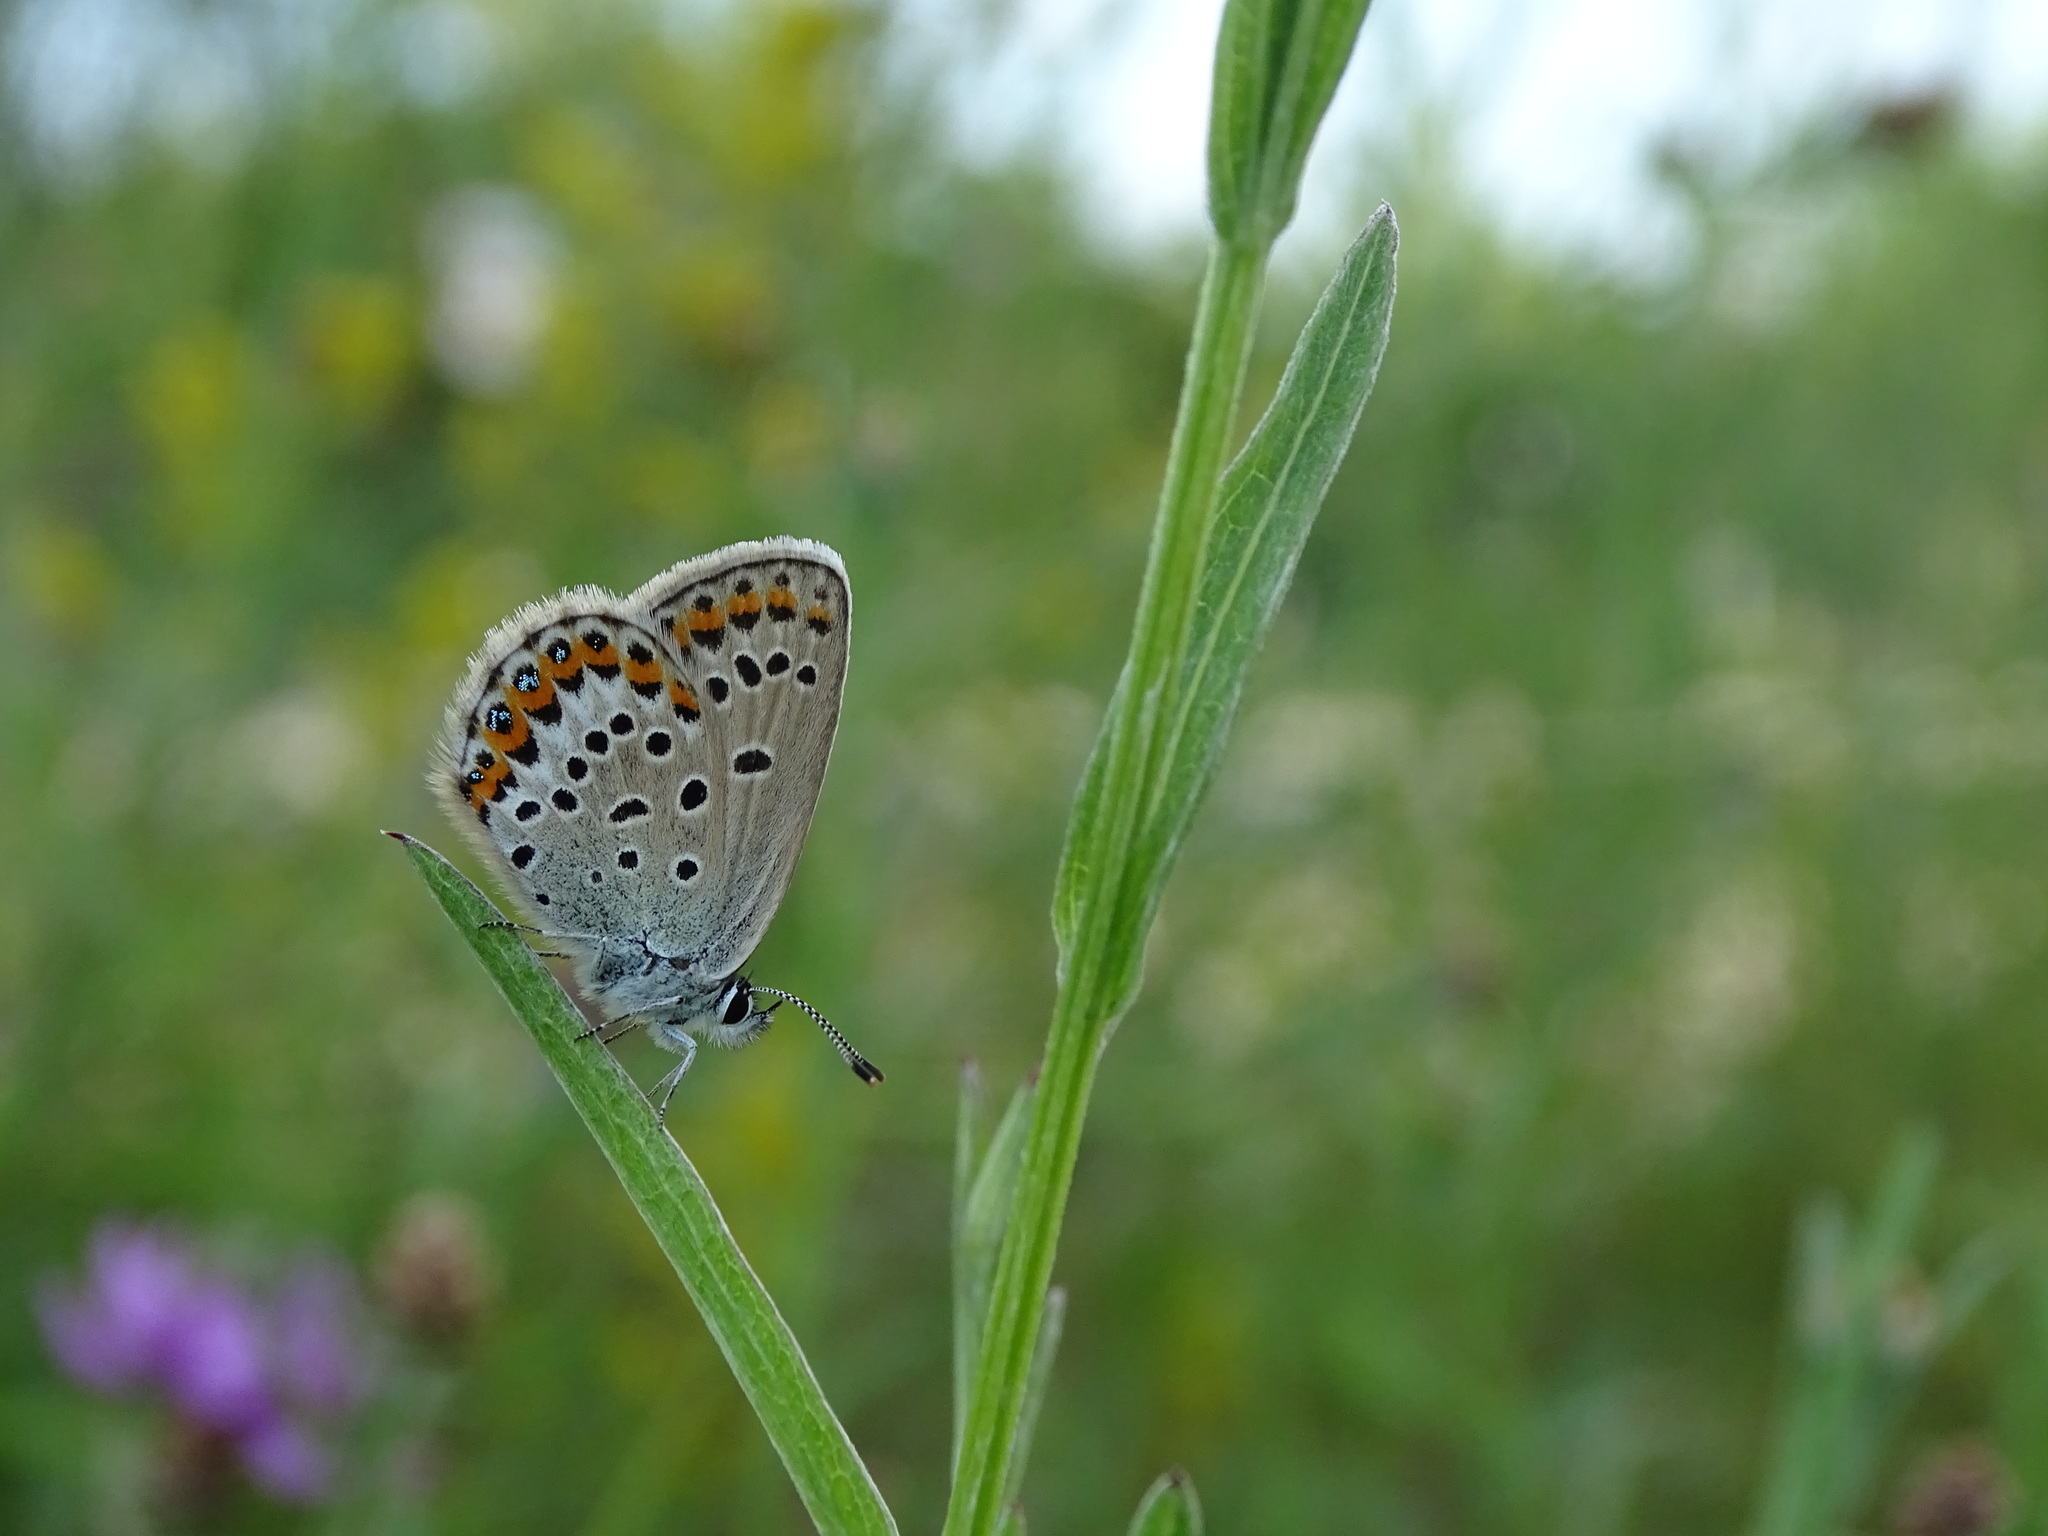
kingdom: Animalia
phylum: Arthropoda
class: Insecta
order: Lepidoptera
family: Lycaenidae
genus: Lycaeides
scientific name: Lycaeides idas
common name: Northern blue
